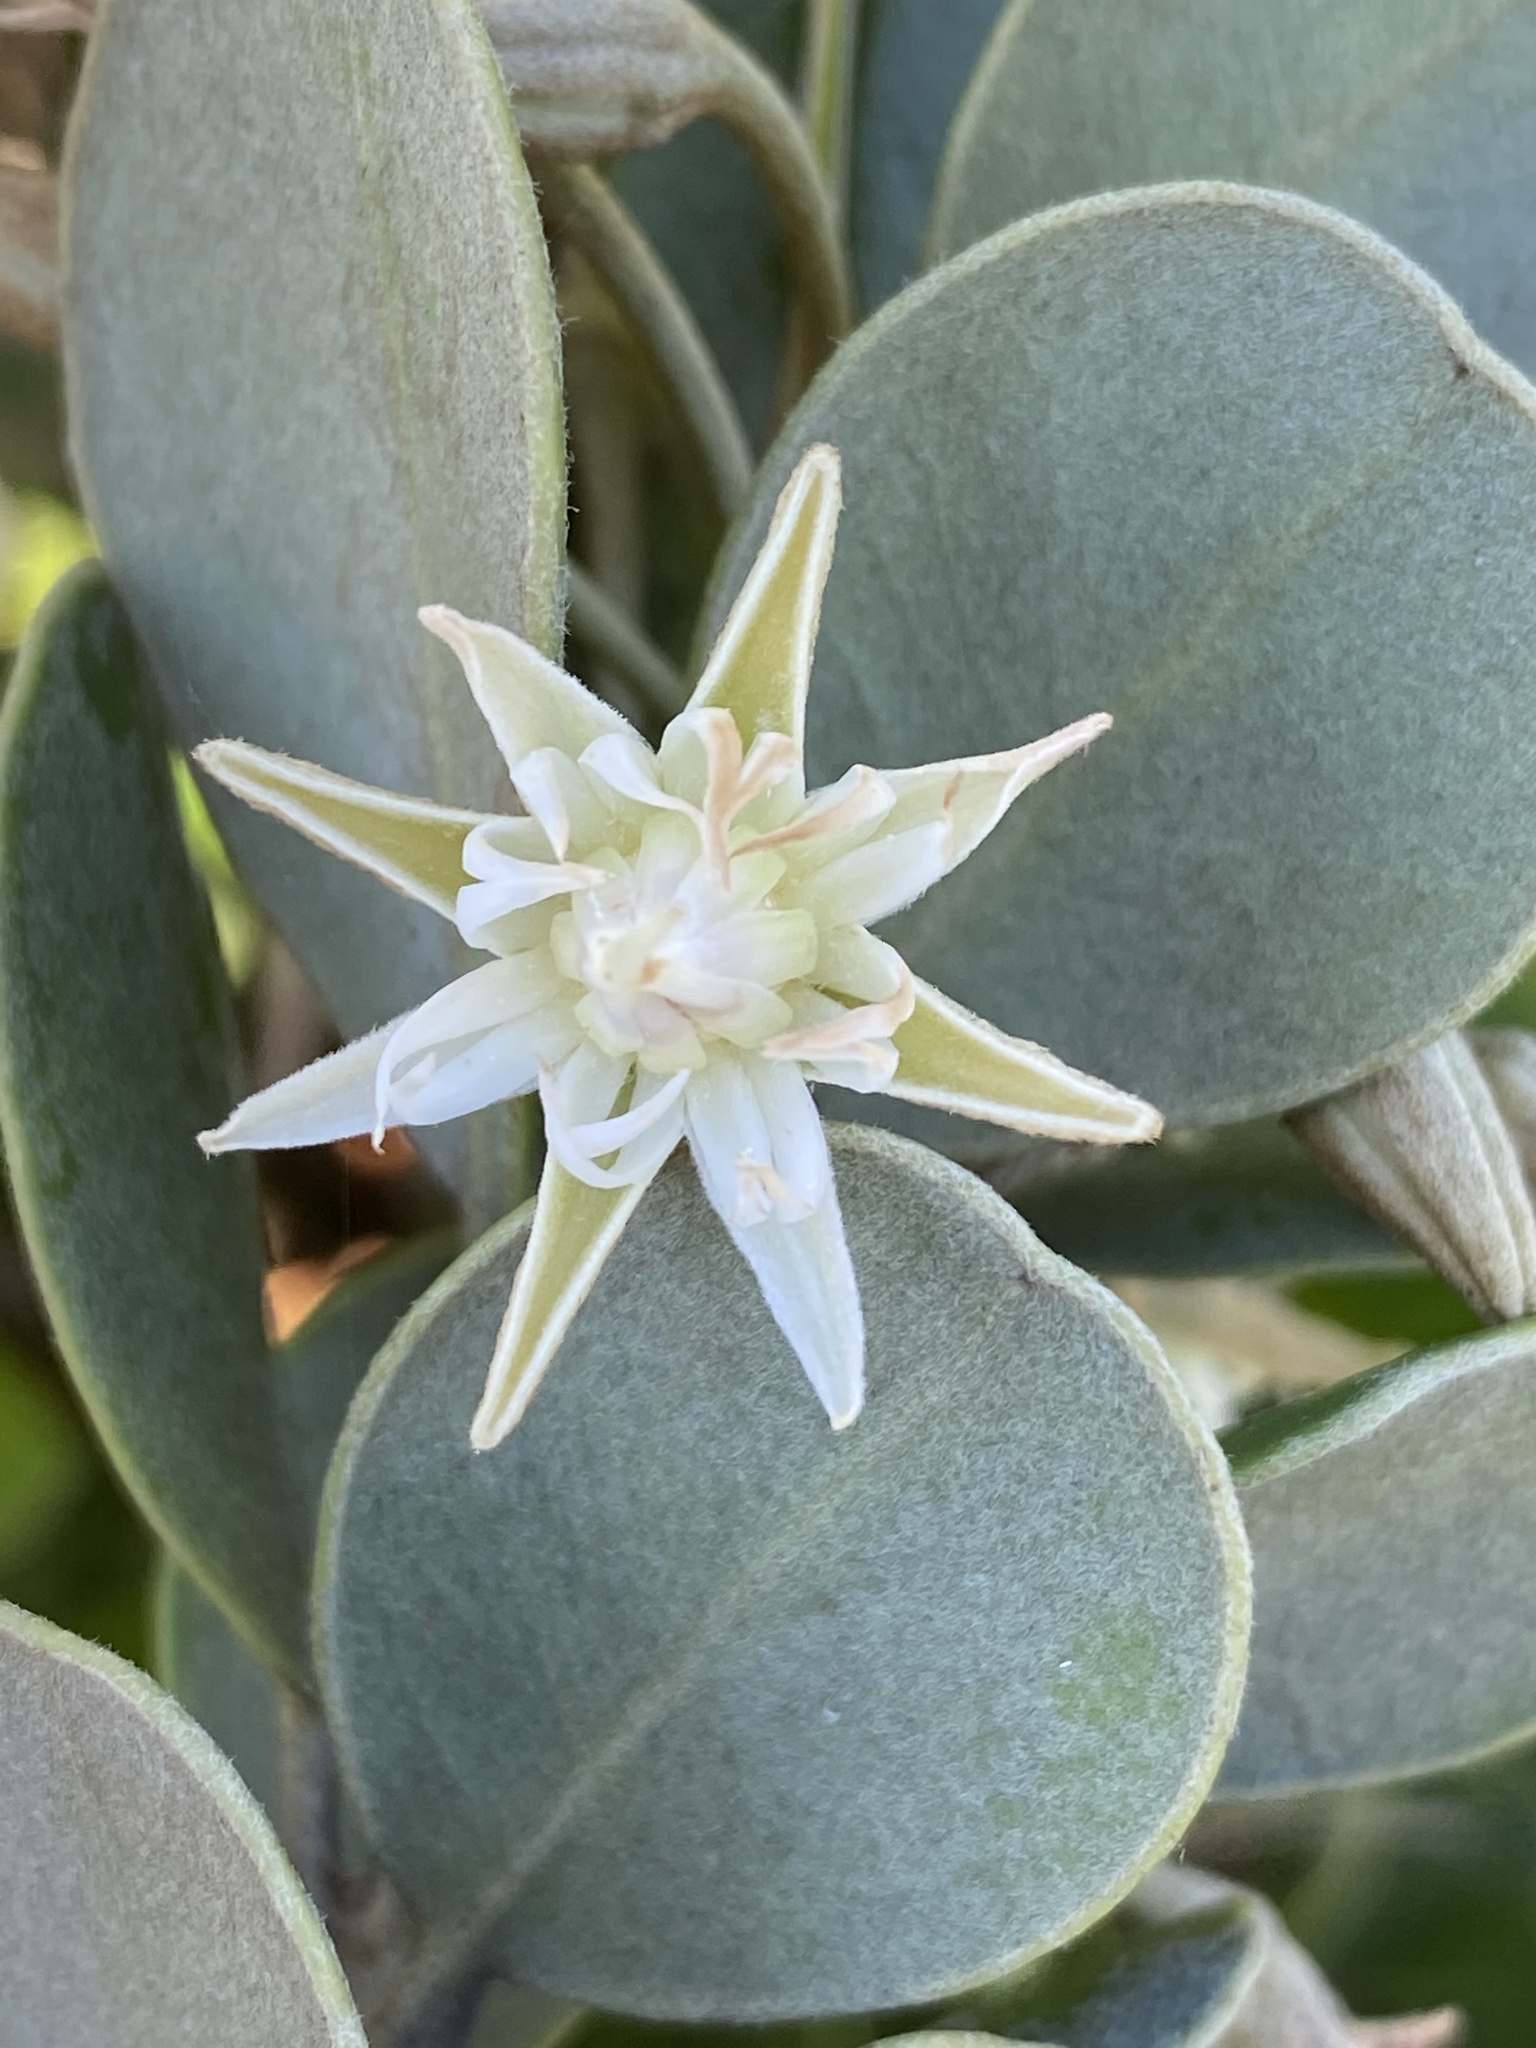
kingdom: Plantae
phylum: Tracheophyta
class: Magnoliopsida
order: Ericales
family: Sapotaceae
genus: Mimusops
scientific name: Mimusops caffra
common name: Coastal red milkwood
